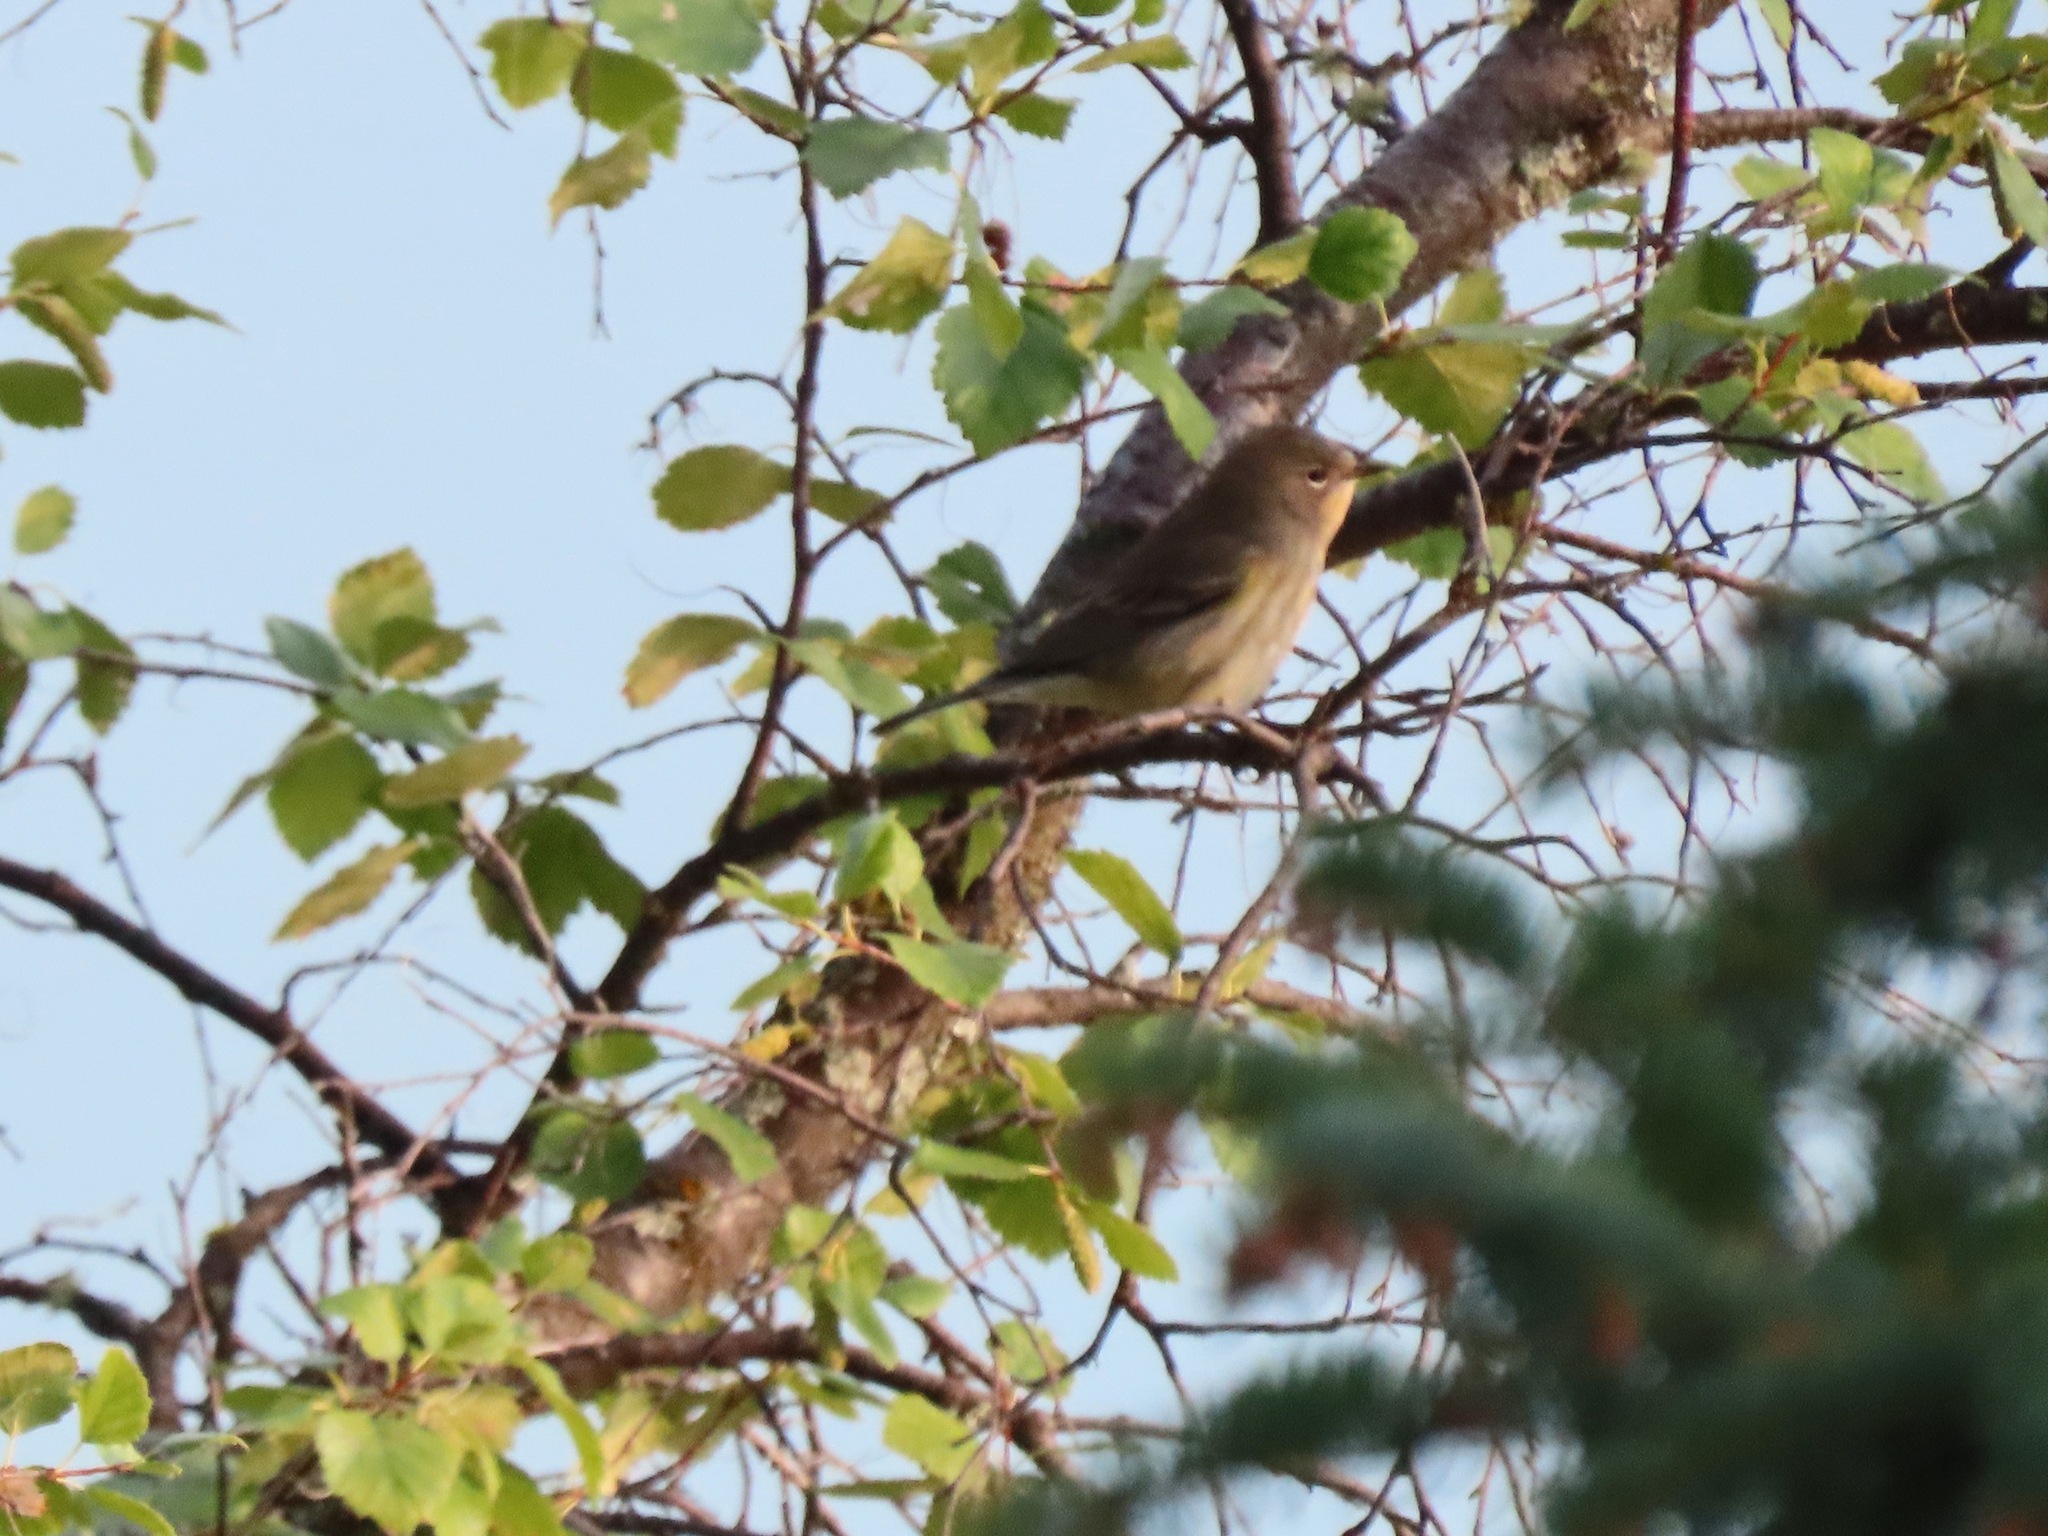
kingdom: Animalia
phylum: Chordata
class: Aves
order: Passeriformes
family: Parulidae
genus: Setophaga
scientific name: Setophaga coronata
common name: Myrtle warbler
